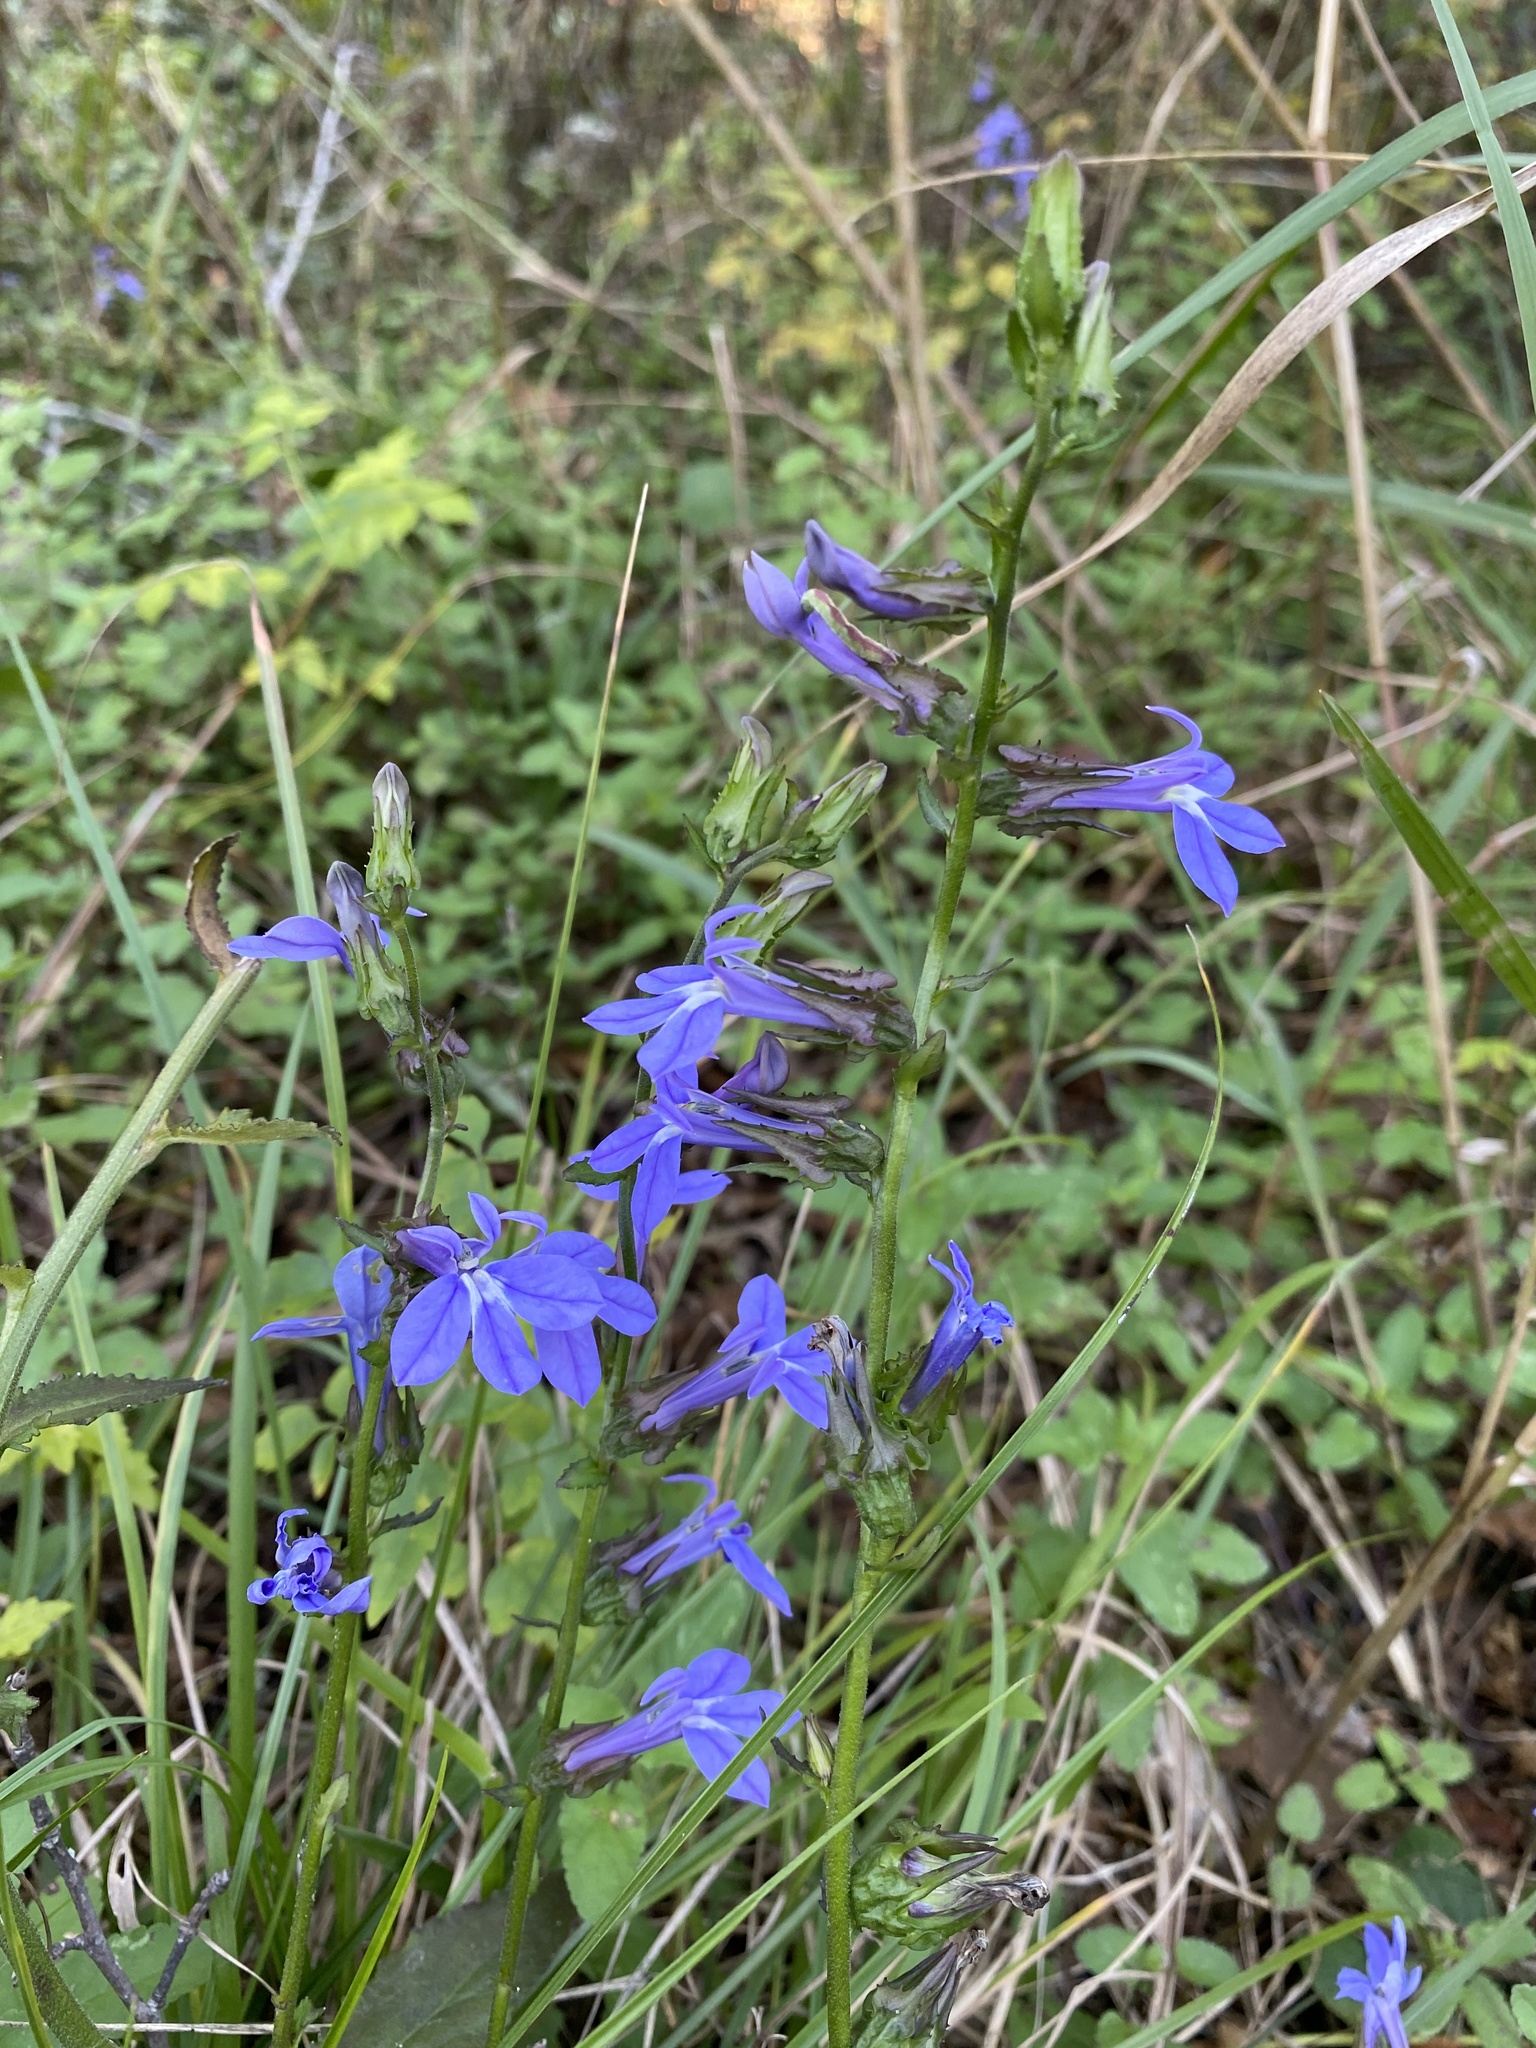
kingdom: Plantae
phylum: Tracheophyta
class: Magnoliopsida
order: Asterales
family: Campanulaceae
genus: Lobelia
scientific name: Lobelia puberula
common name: Purple dewdrop
